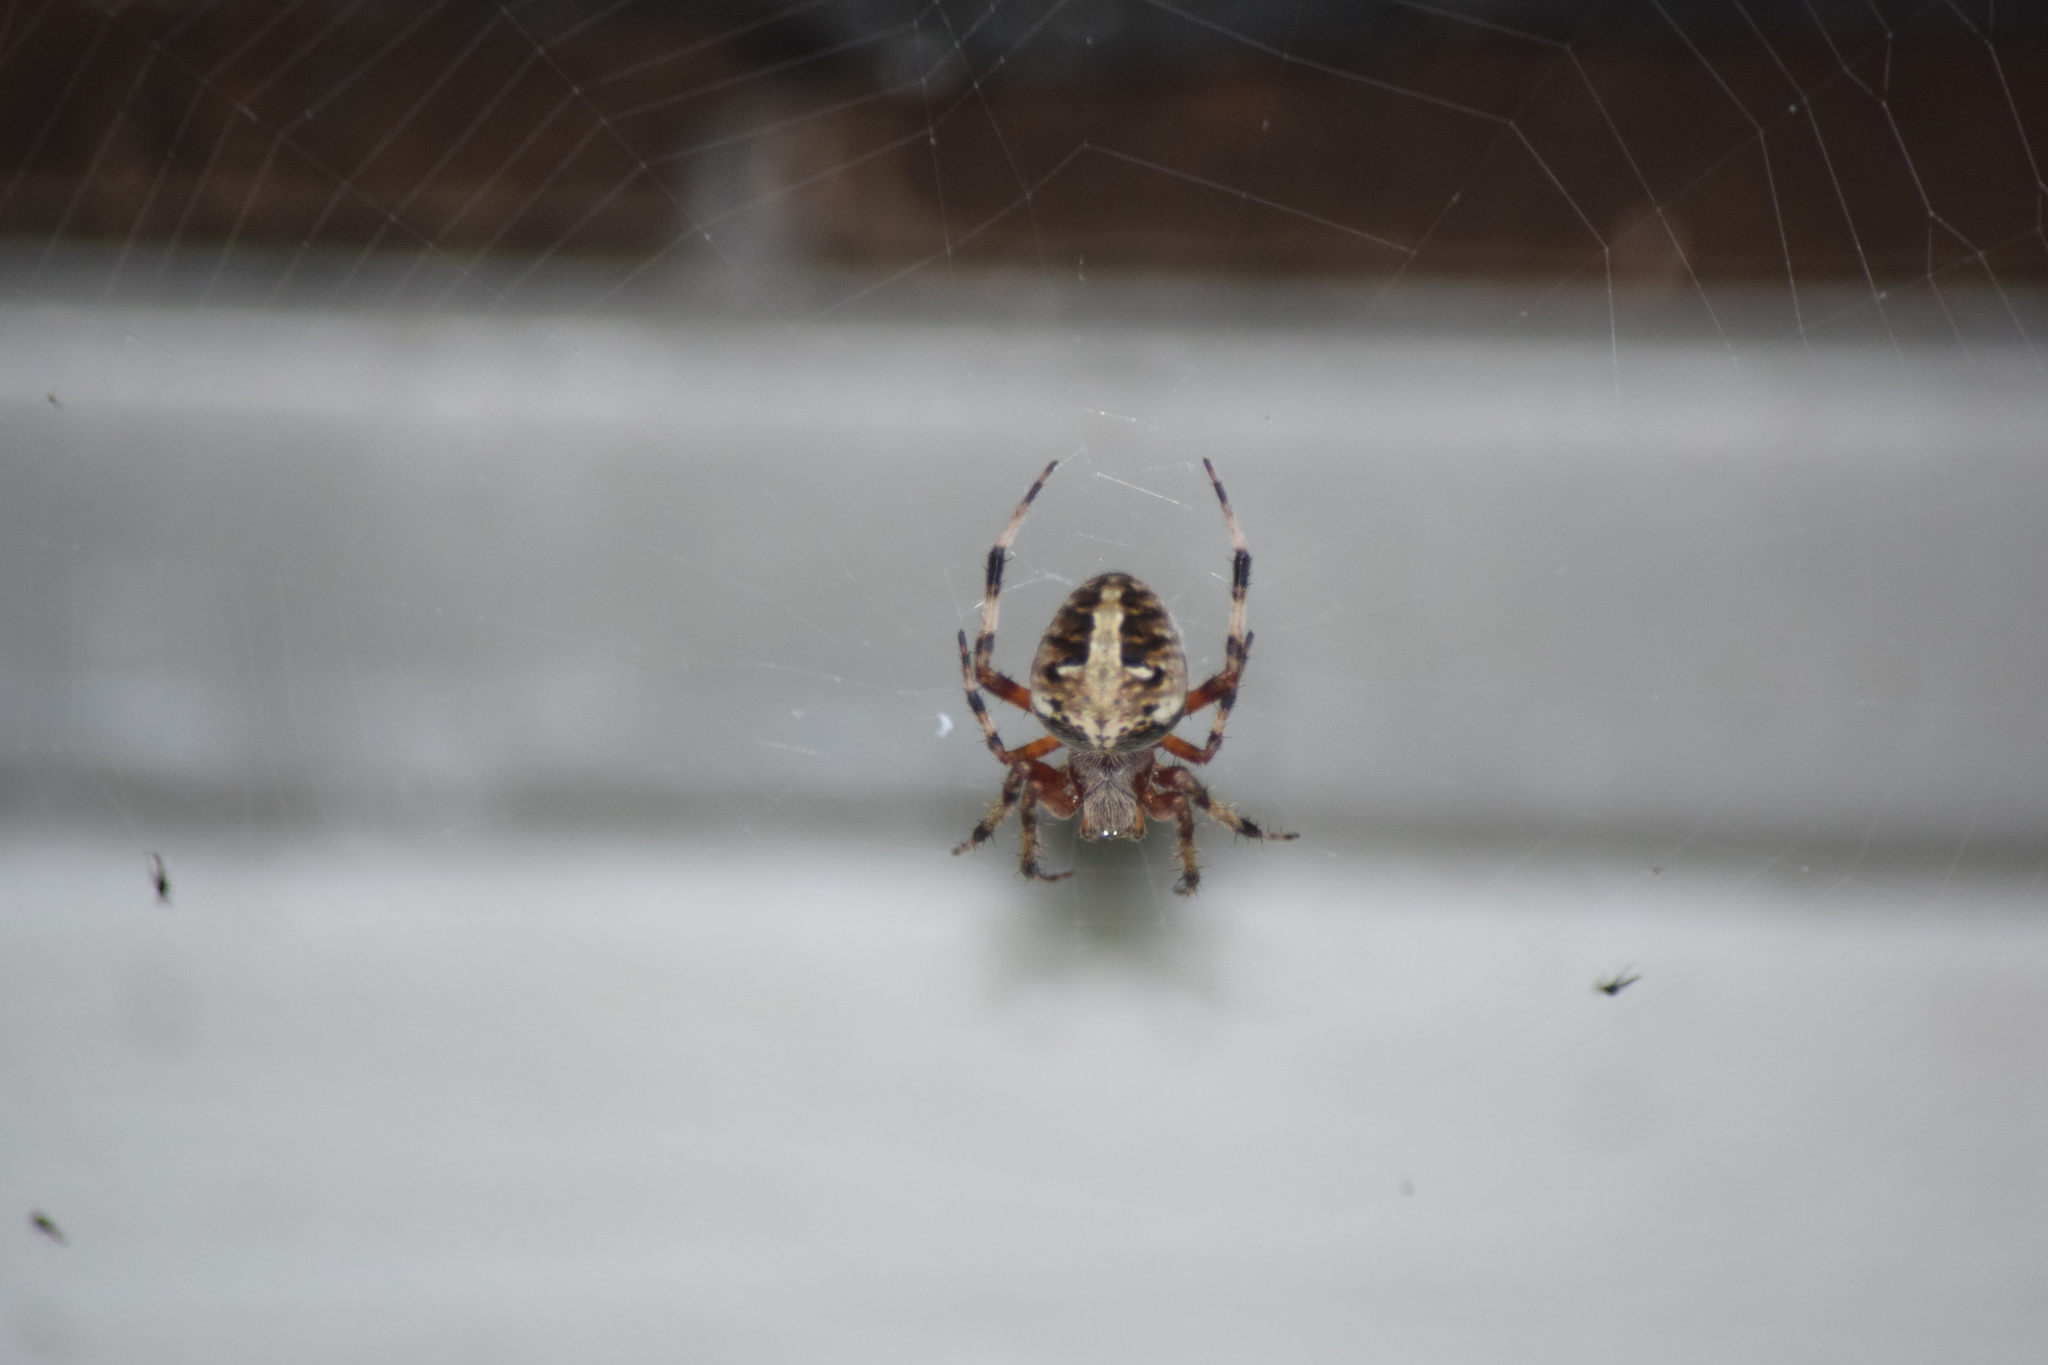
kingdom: Animalia
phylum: Arthropoda
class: Arachnida
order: Araneae
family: Araneidae
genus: Neoscona
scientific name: Neoscona domiciliorum
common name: Red-femured spotted orbweaver
